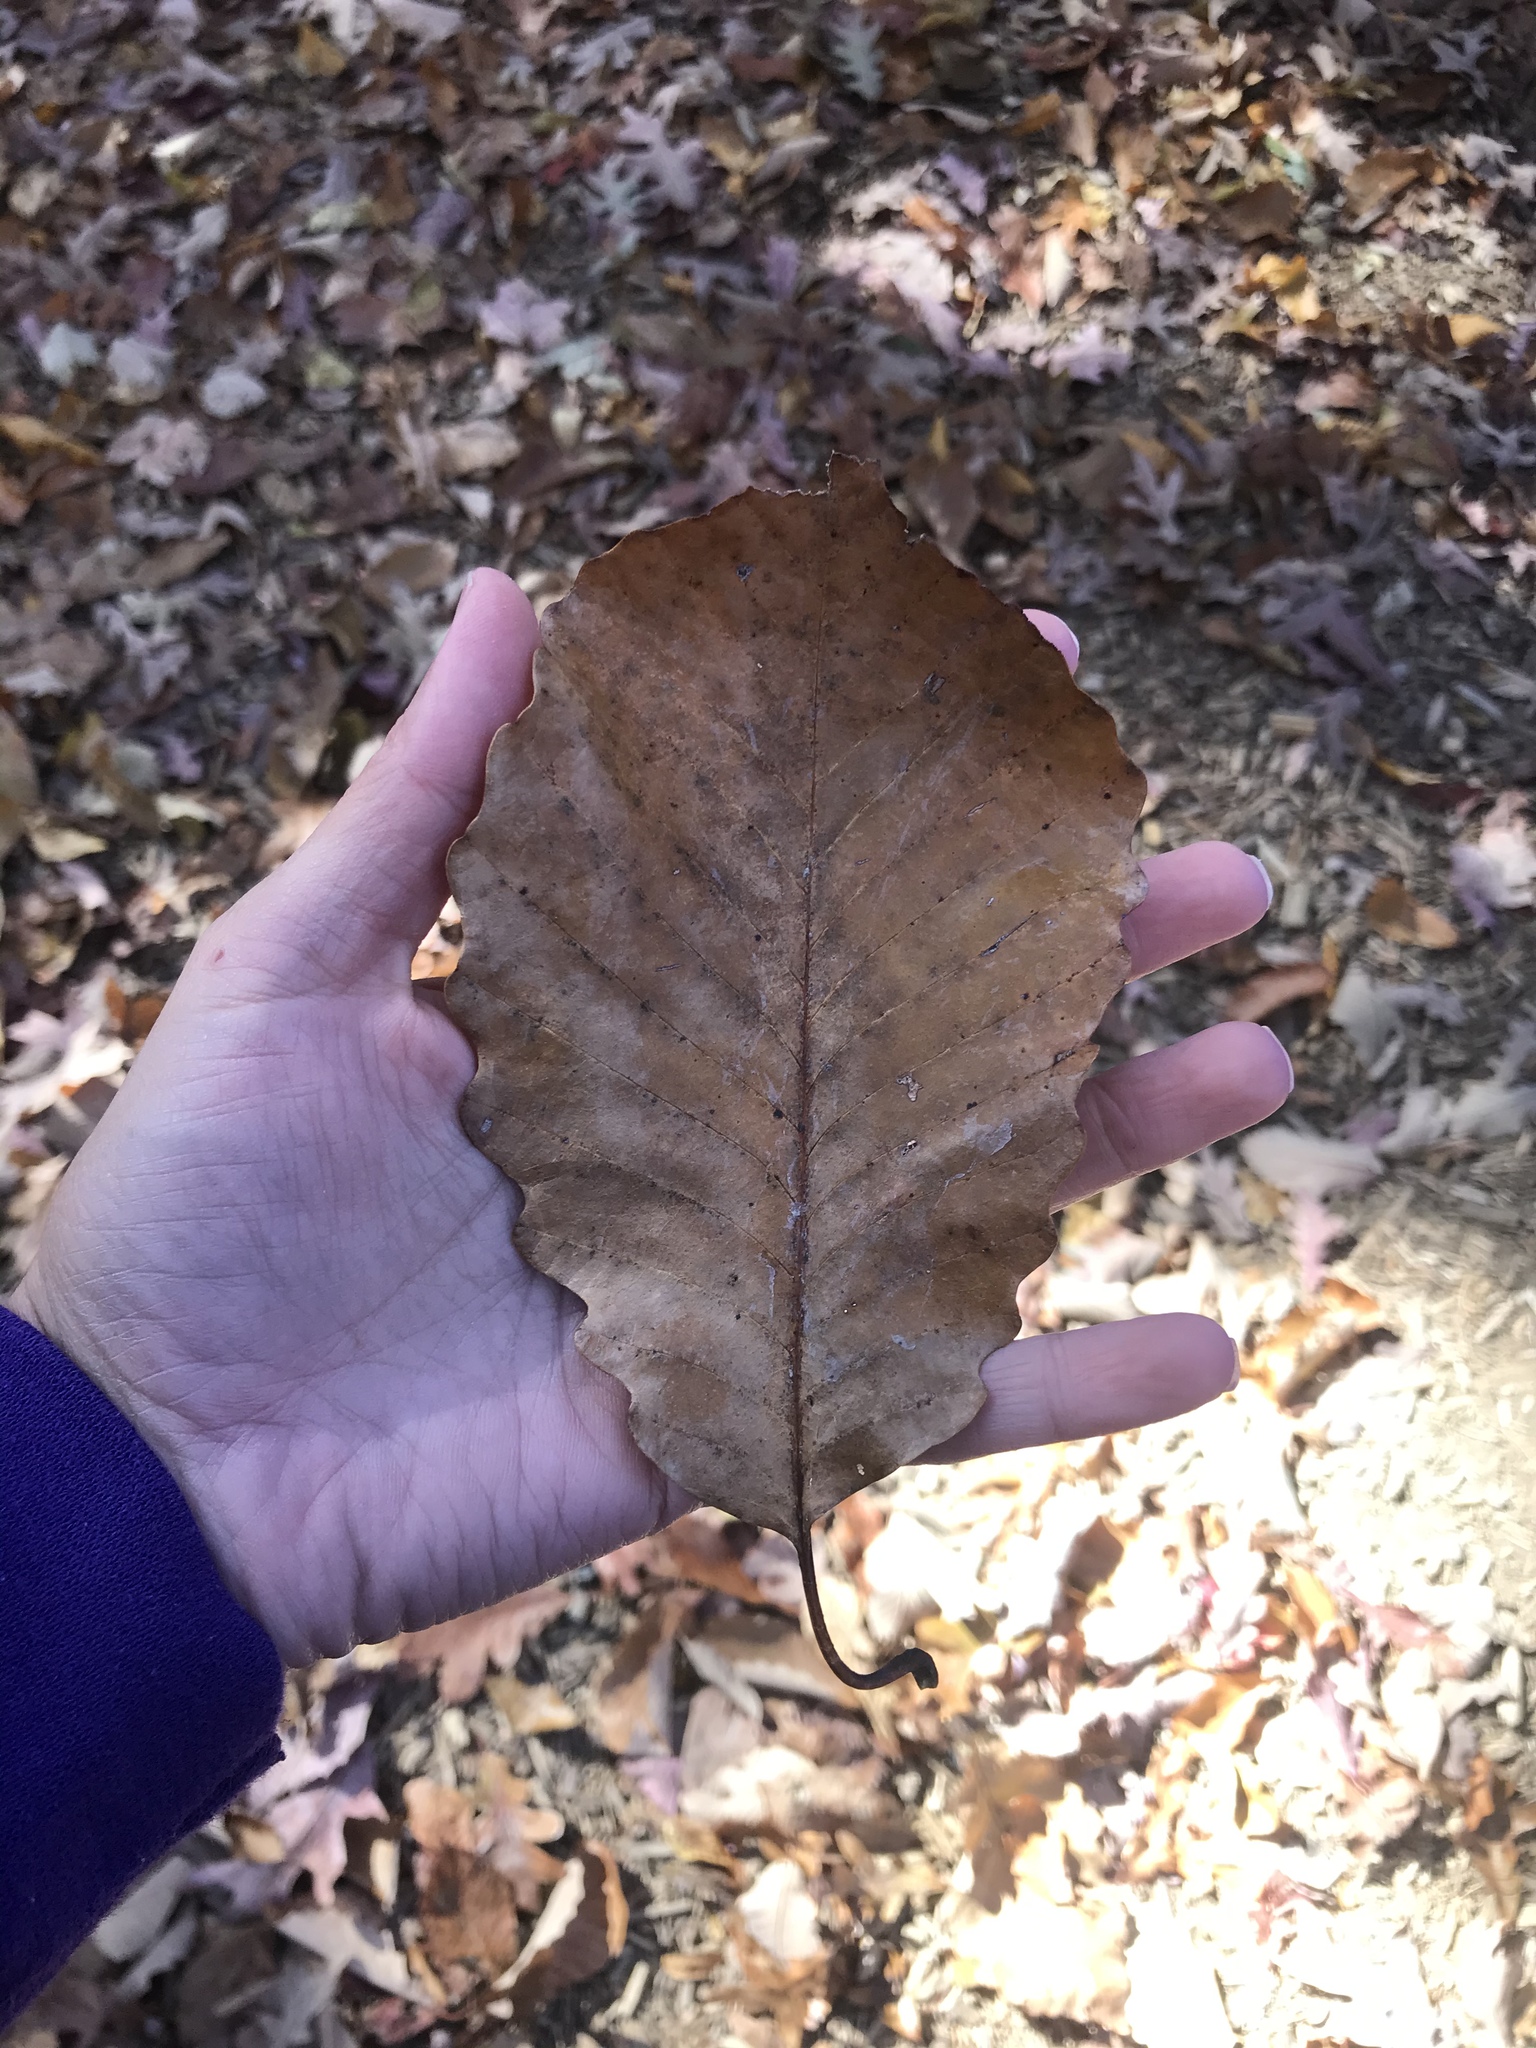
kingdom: Plantae
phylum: Tracheophyta
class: Magnoliopsida
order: Fagales
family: Fagaceae
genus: Quercus
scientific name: Quercus montana
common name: Chestnut oak
